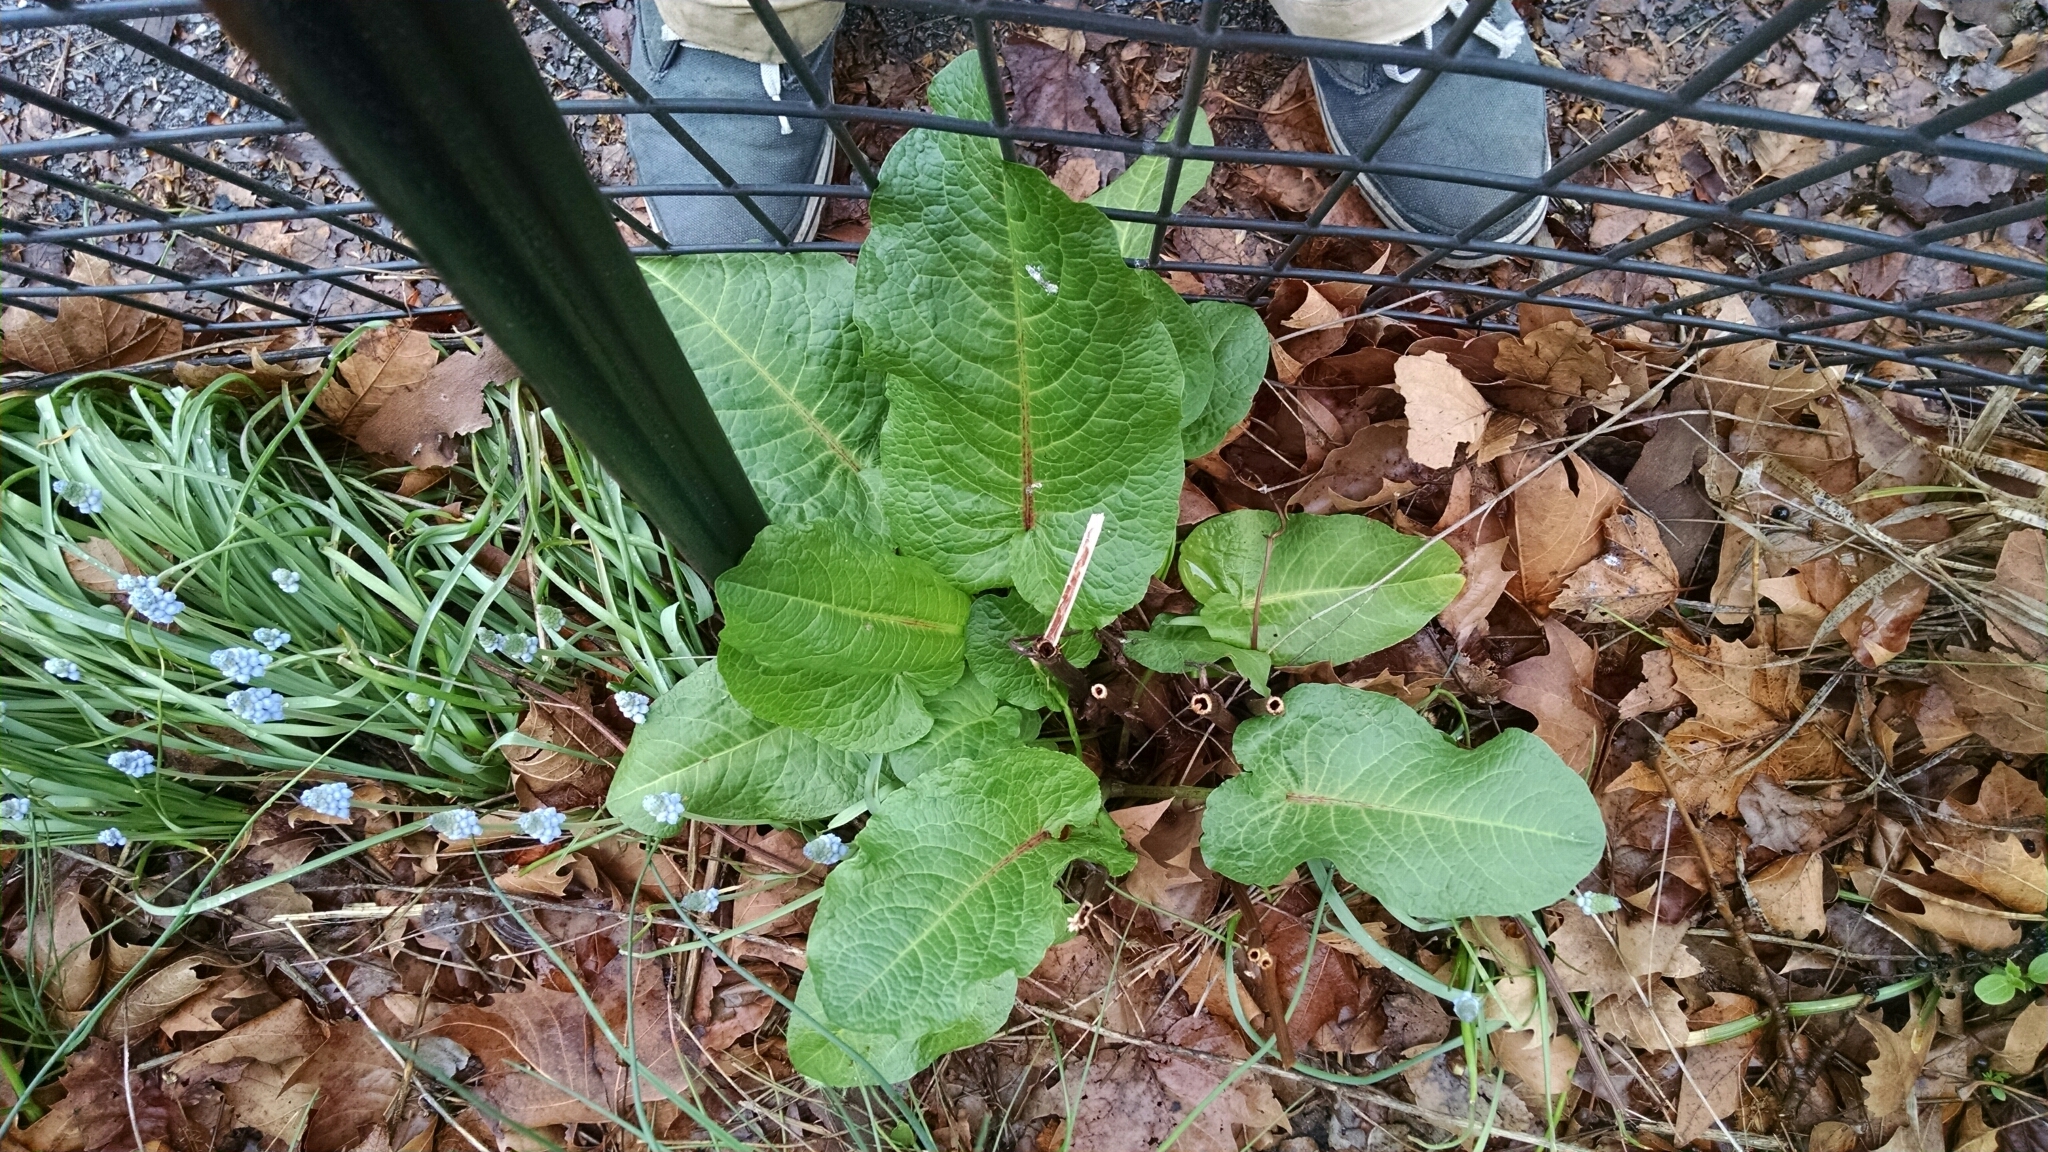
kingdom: Plantae
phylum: Tracheophyta
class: Magnoliopsida
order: Caryophyllales
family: Polygonaceae
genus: Rumex
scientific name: Rumex obtusifolius
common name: Bitter dock
